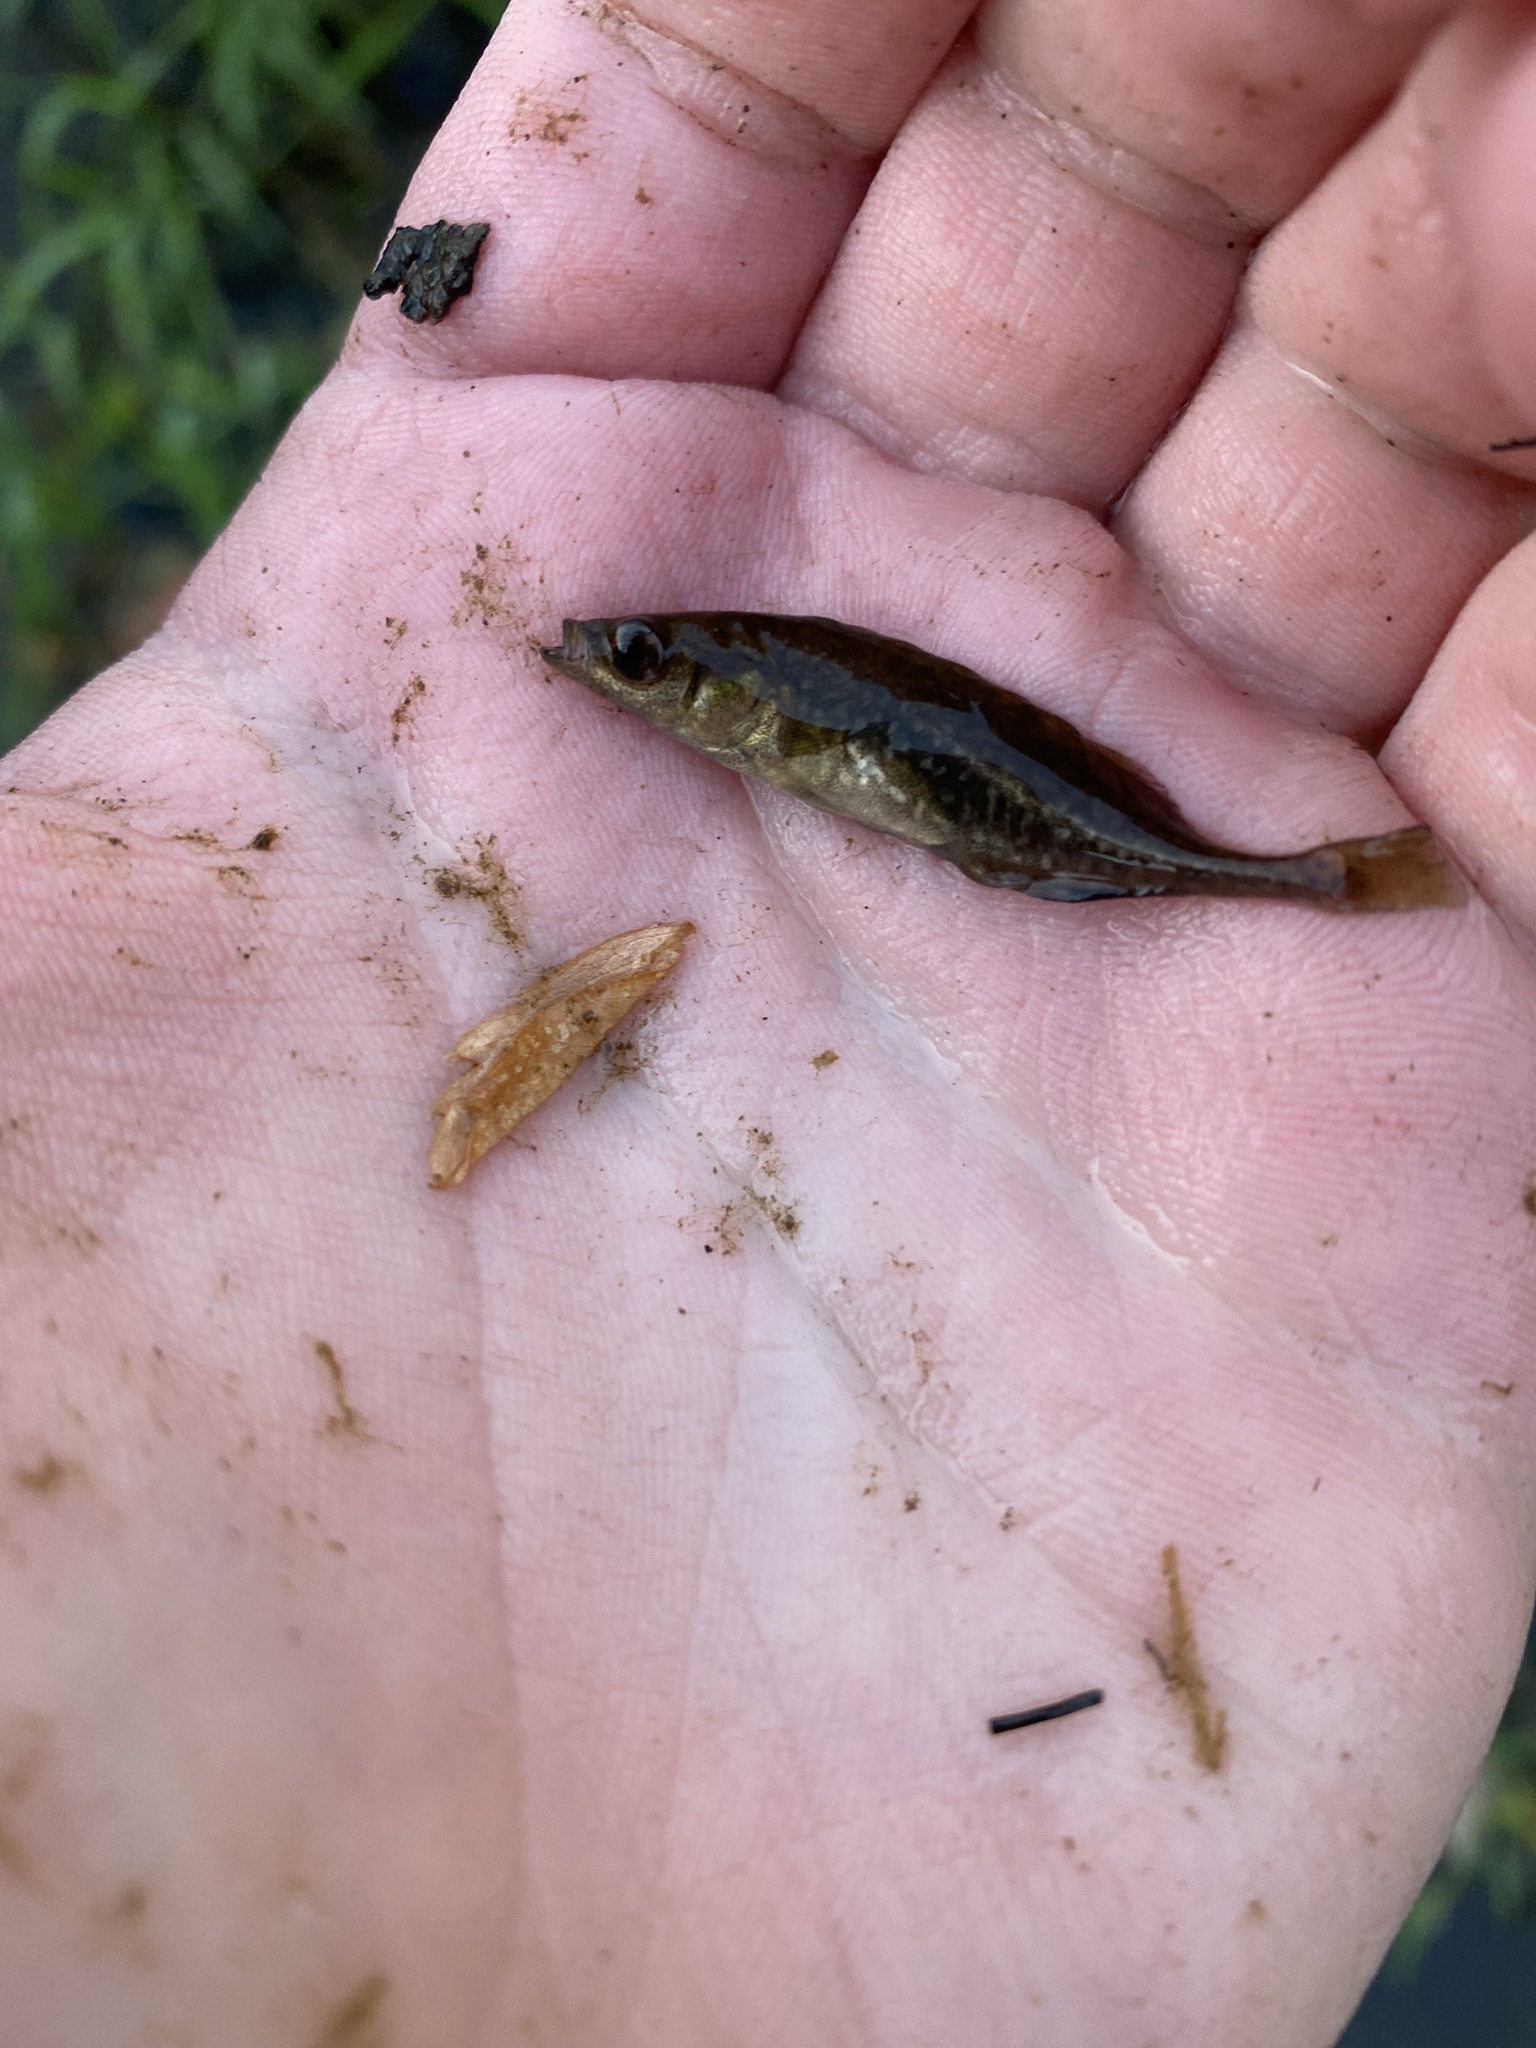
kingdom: Animalia
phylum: Chordata
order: Gasterosteiformes
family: Gasterosteidae
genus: Culaea
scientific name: Culaea inconstans
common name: Brook stickleback
